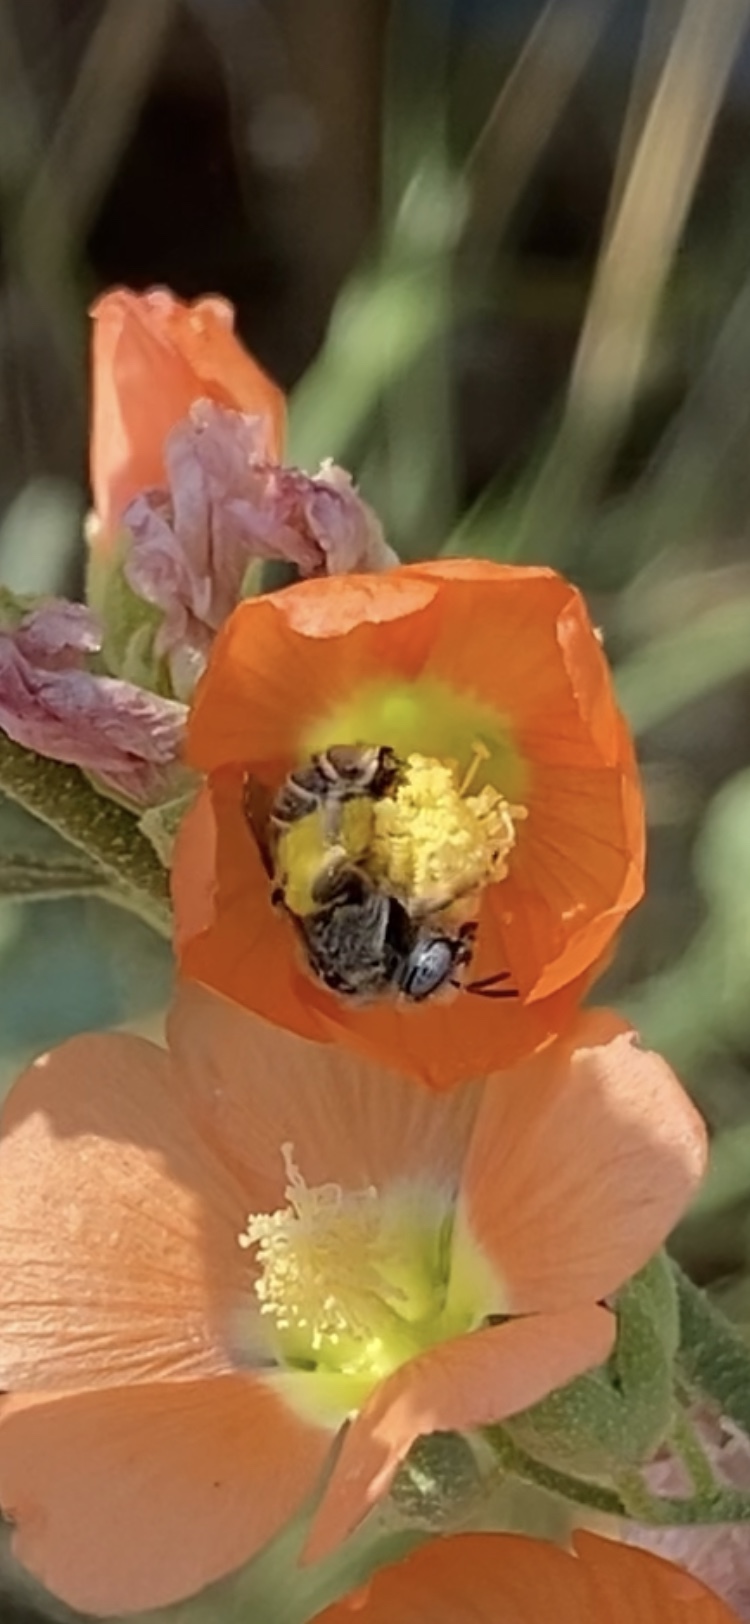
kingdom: Animalia
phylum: Arthropoda
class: Insecta
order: Hymenoptera
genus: Coquillettapis
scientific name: Coquillettapis
